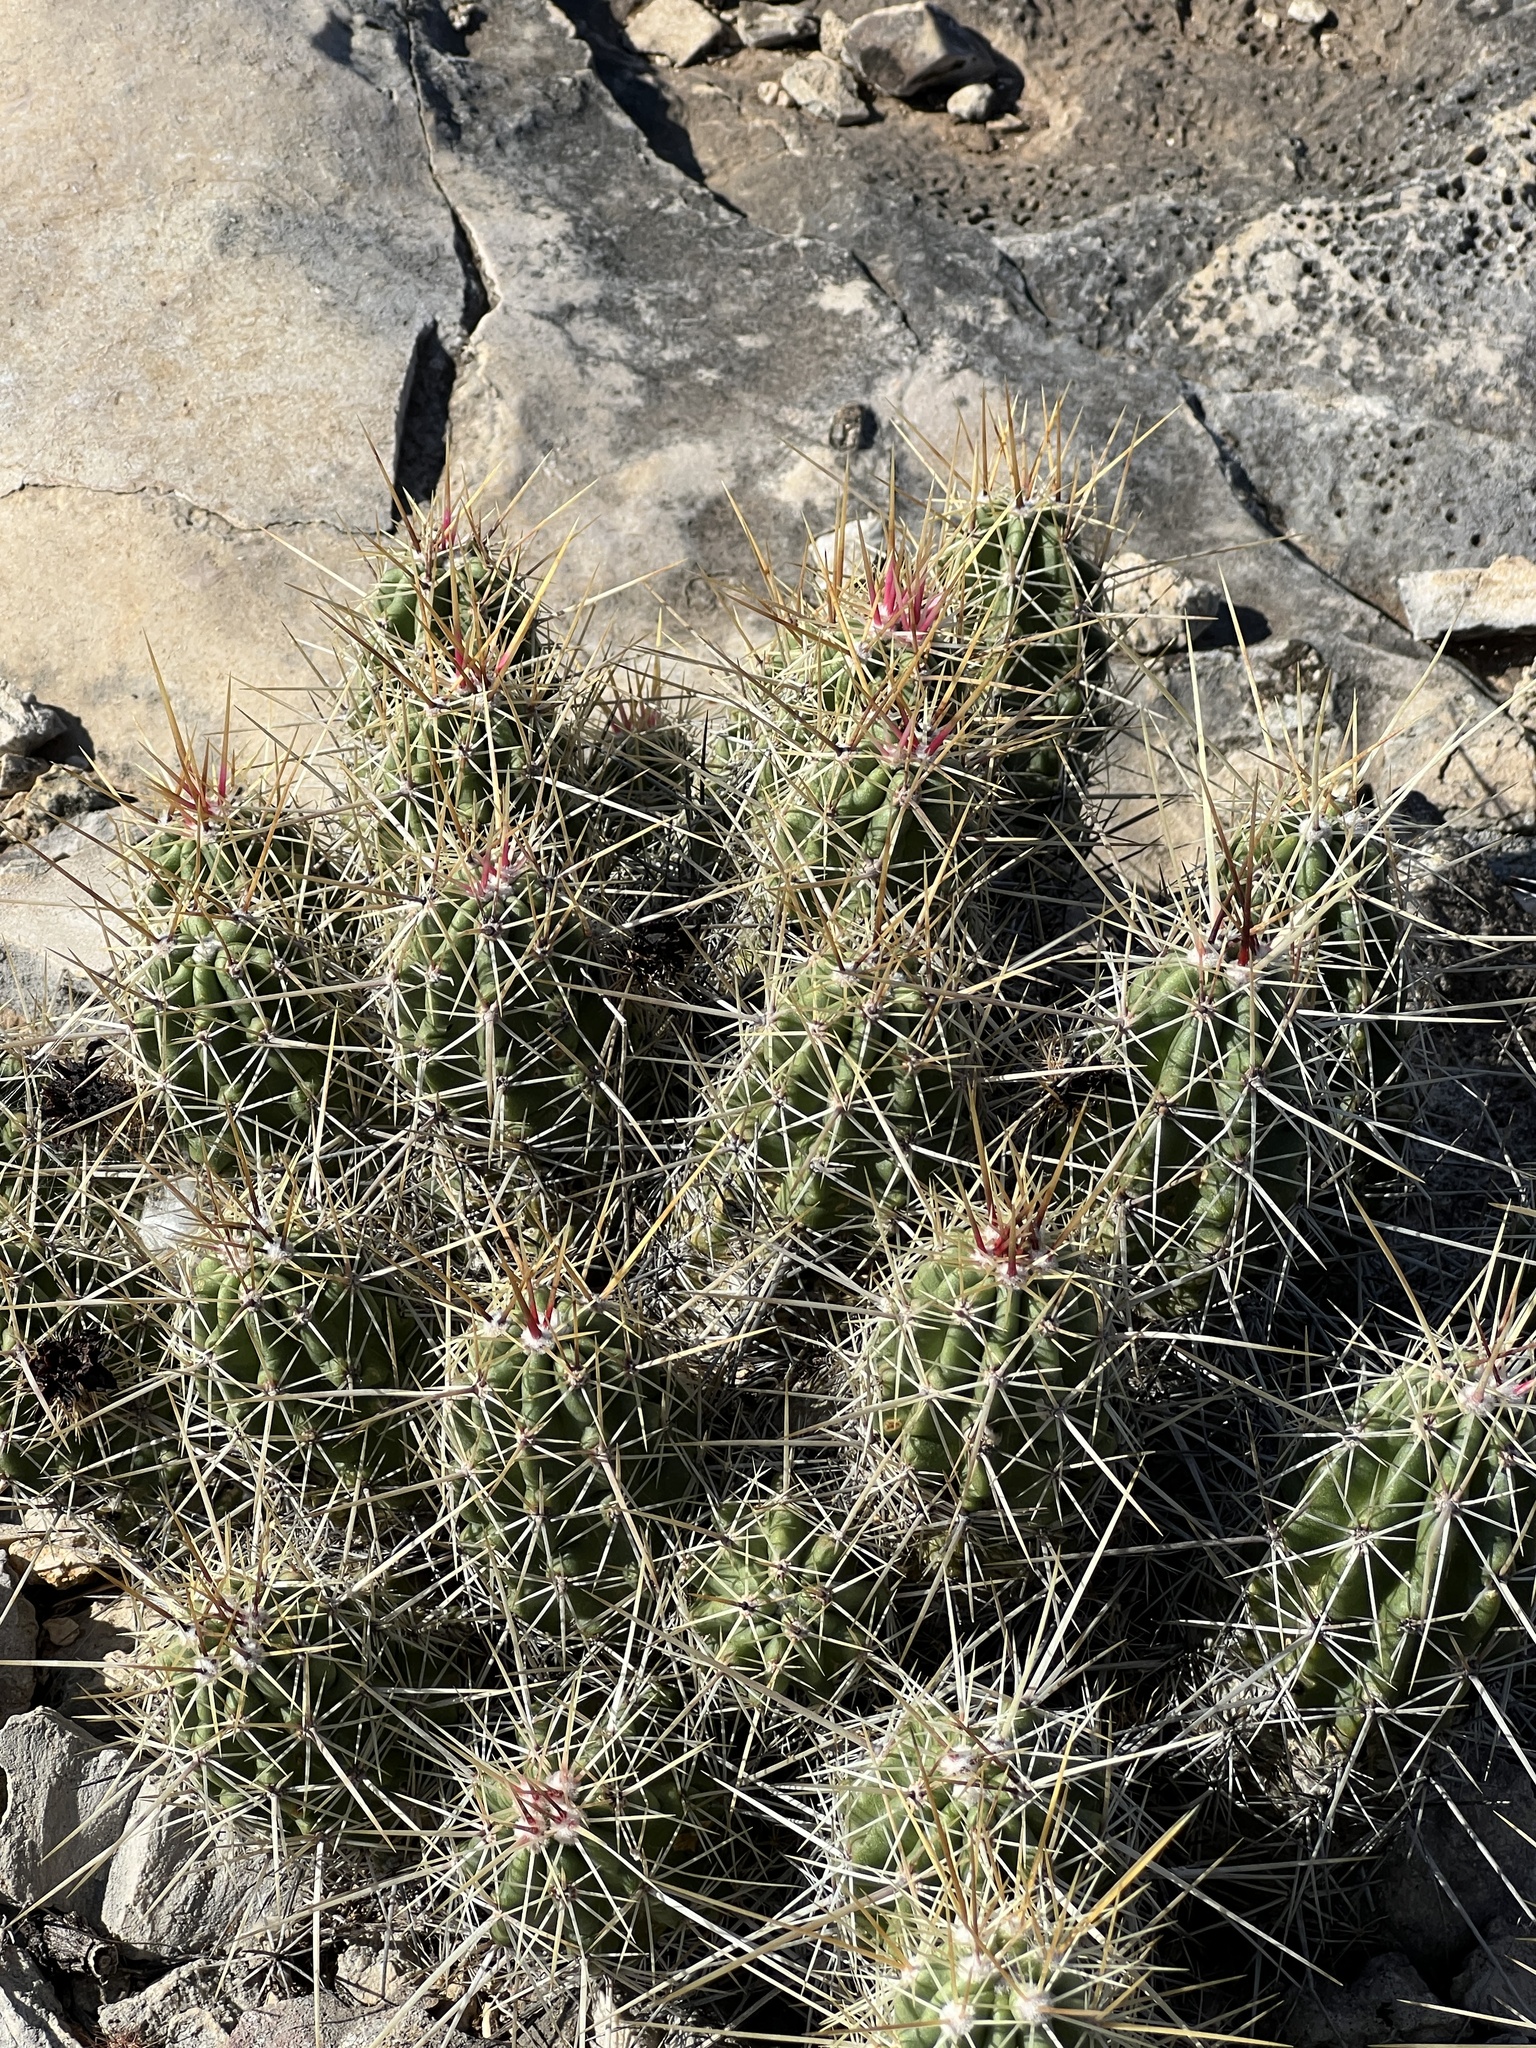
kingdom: Plantae
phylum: Tracheophyta
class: Magnoliopsida
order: Caryophyllales
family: Cactaceae
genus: Echinocereus
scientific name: Echinocereus enneacanthus
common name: Pitaya
